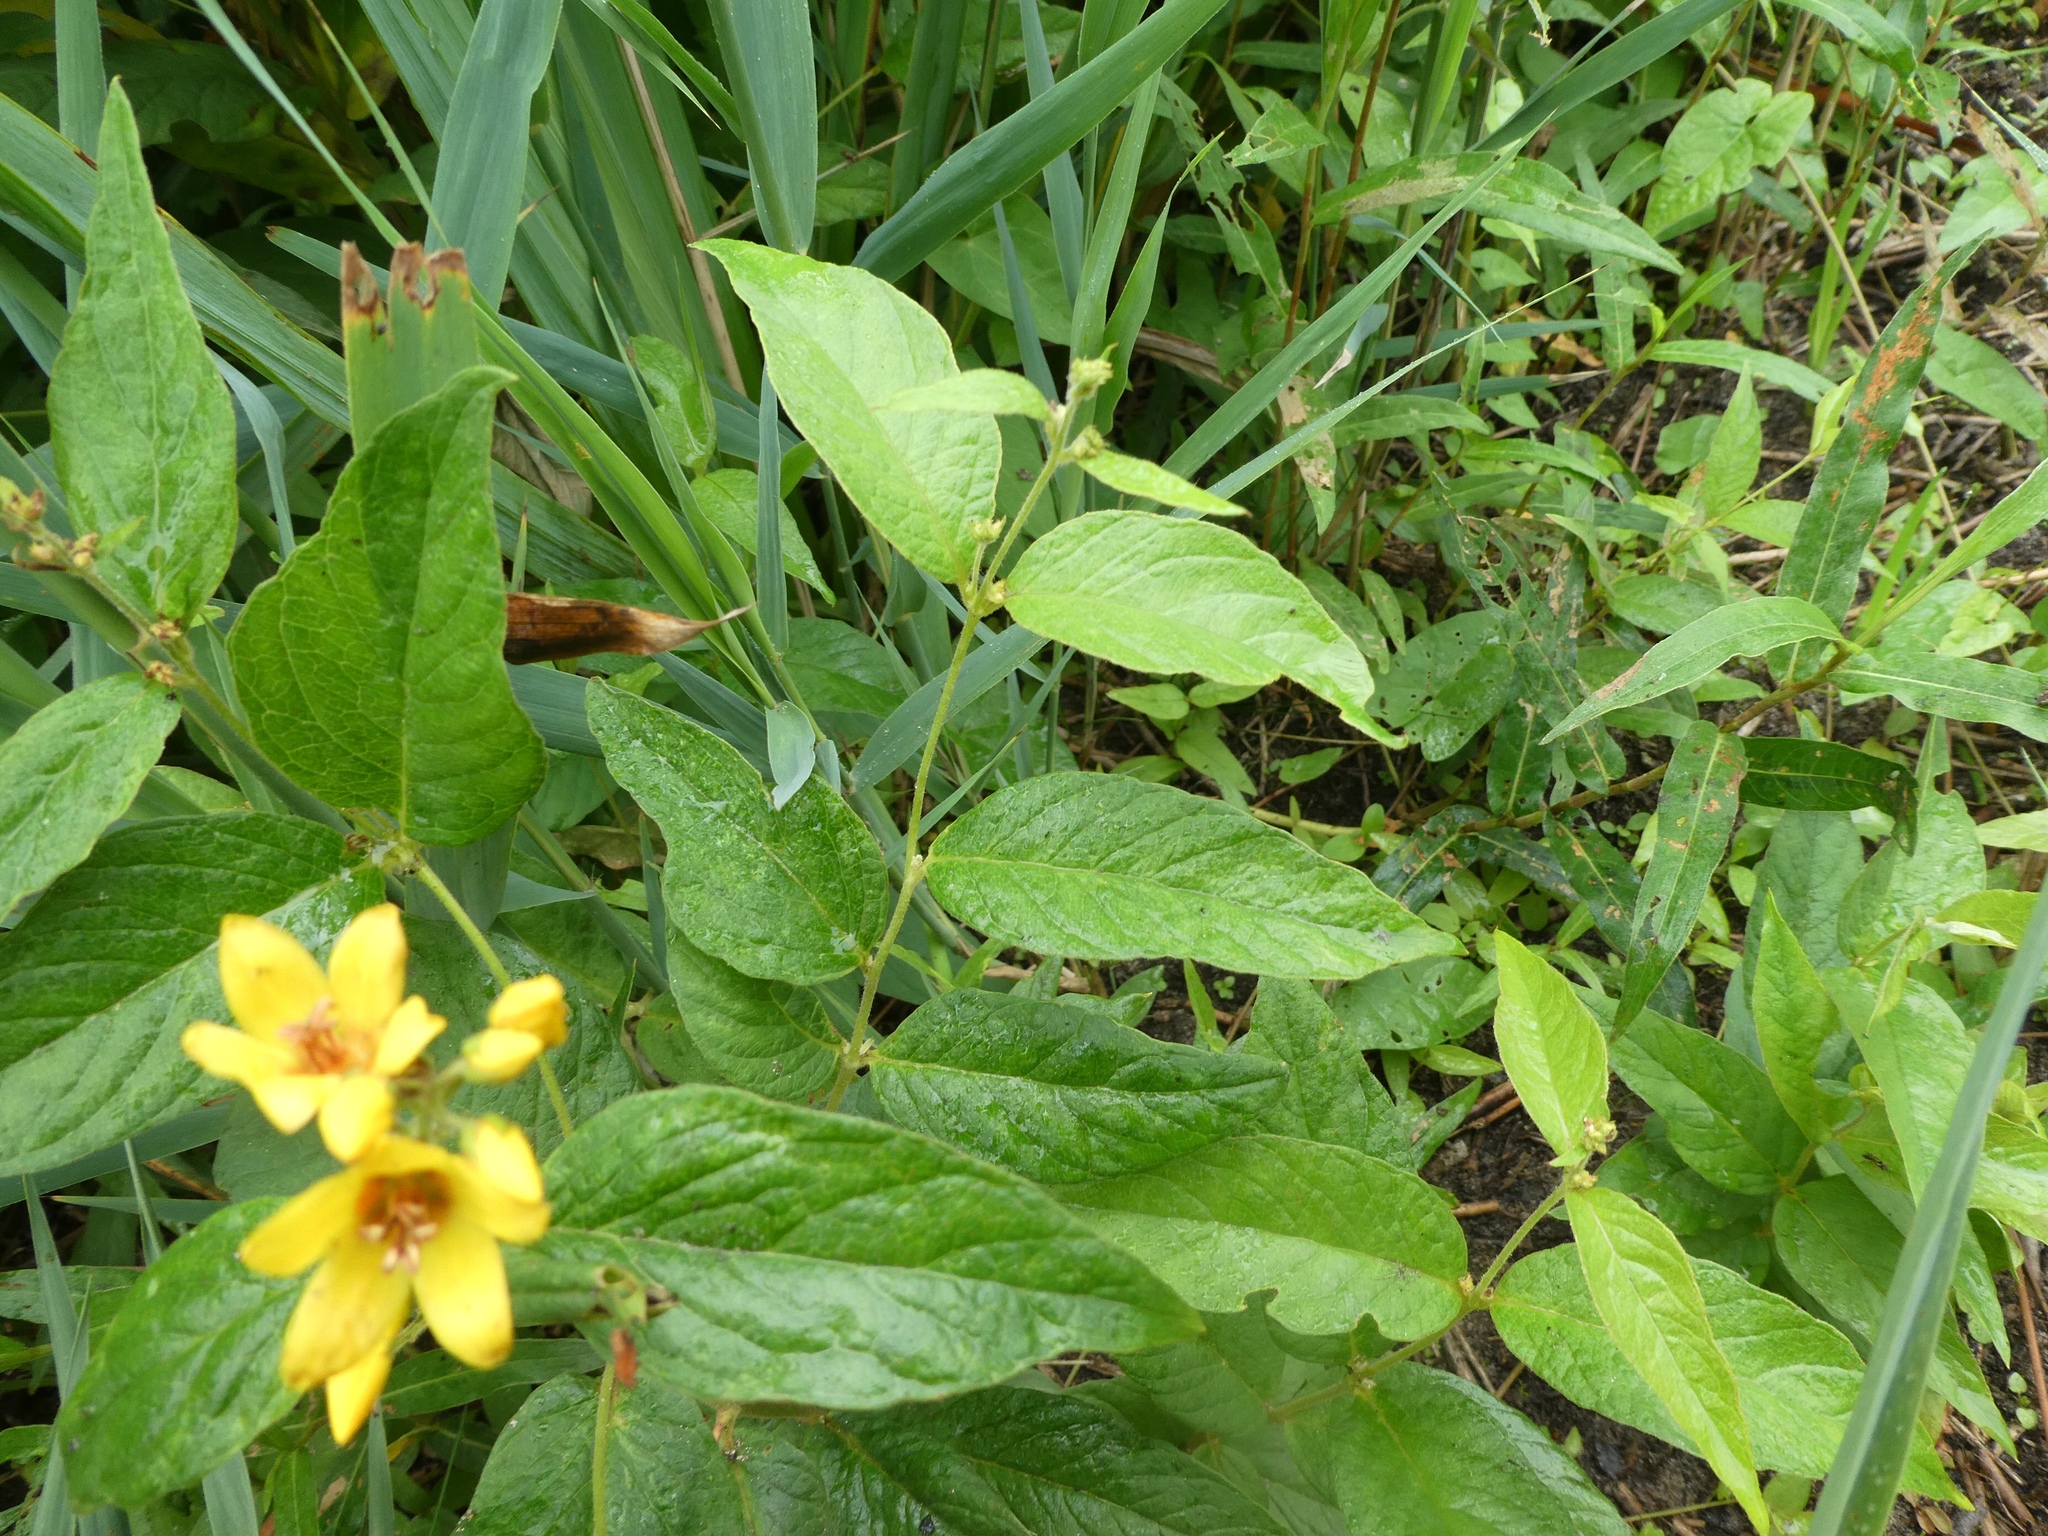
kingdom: Plantae
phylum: Tracheophyta
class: Magnoliopsida
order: Ericales
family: Primulaceae
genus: Lysimachia
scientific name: Lysimachia vulgaris
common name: Yellow loosestrife
